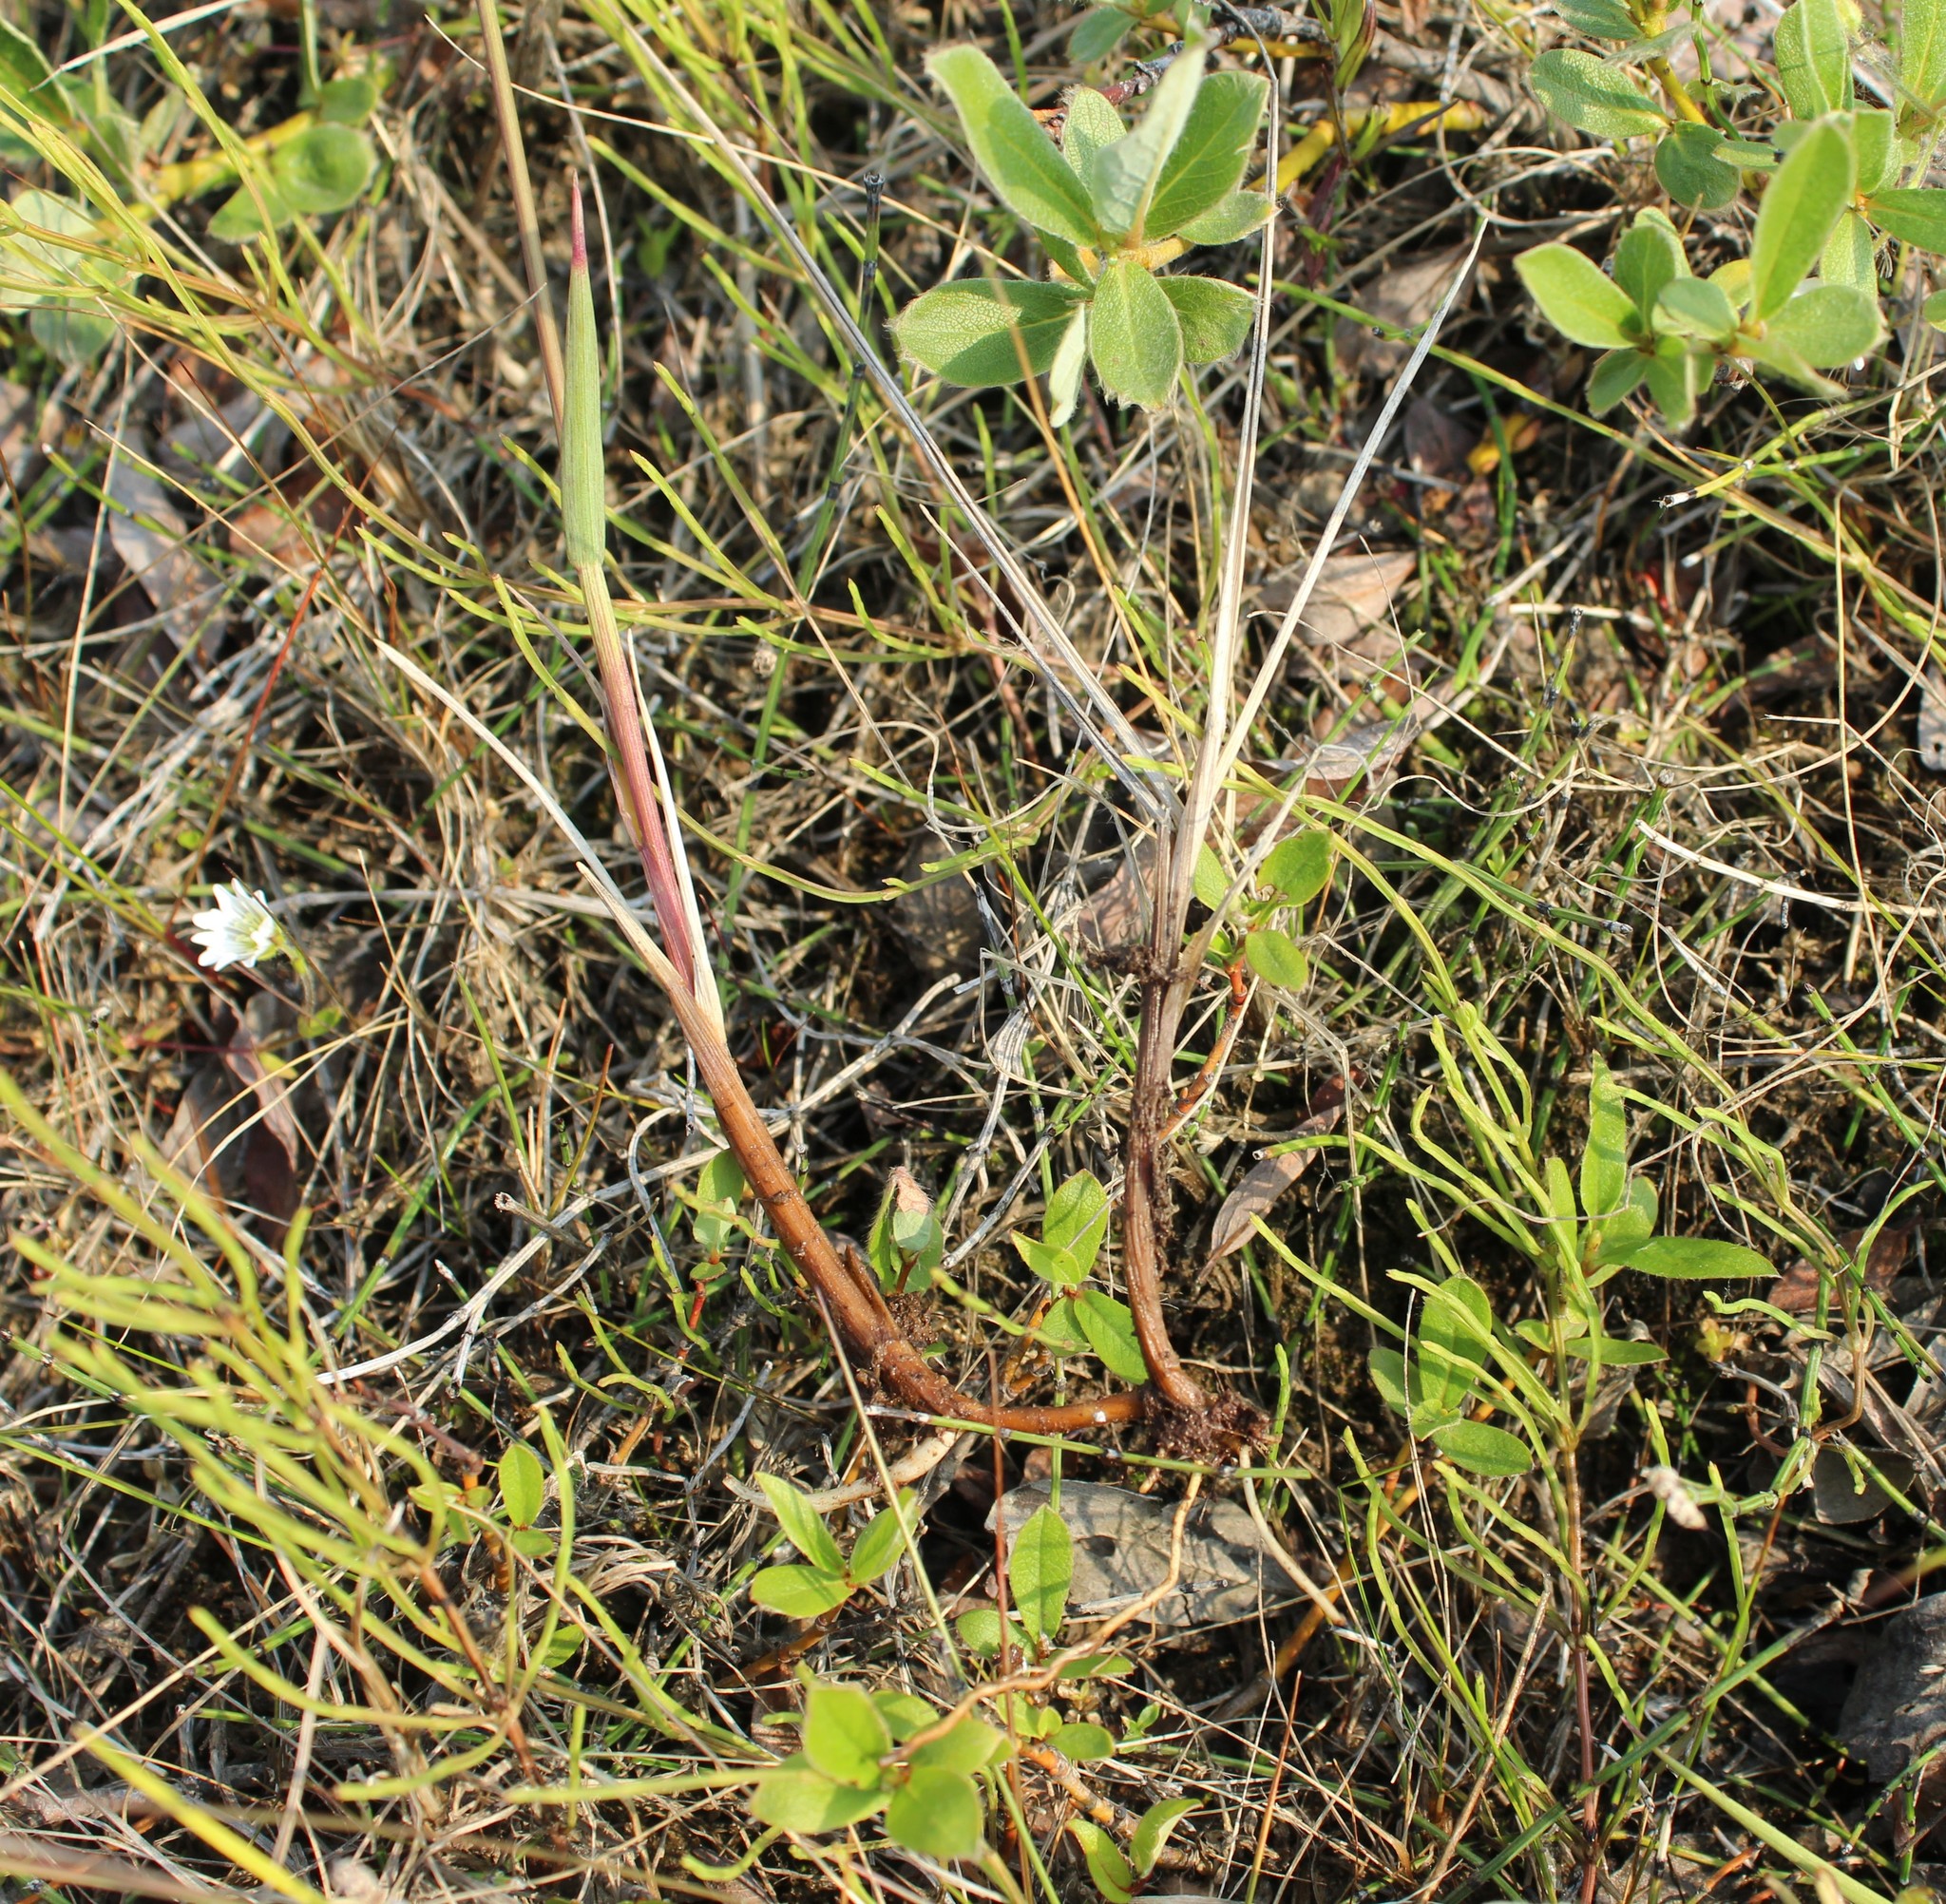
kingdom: Plantae
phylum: Tracheophyta
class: Liliopsida
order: Poales
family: Poaceae
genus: Poa
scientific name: Poa arctica
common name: Arctic bluegrass
